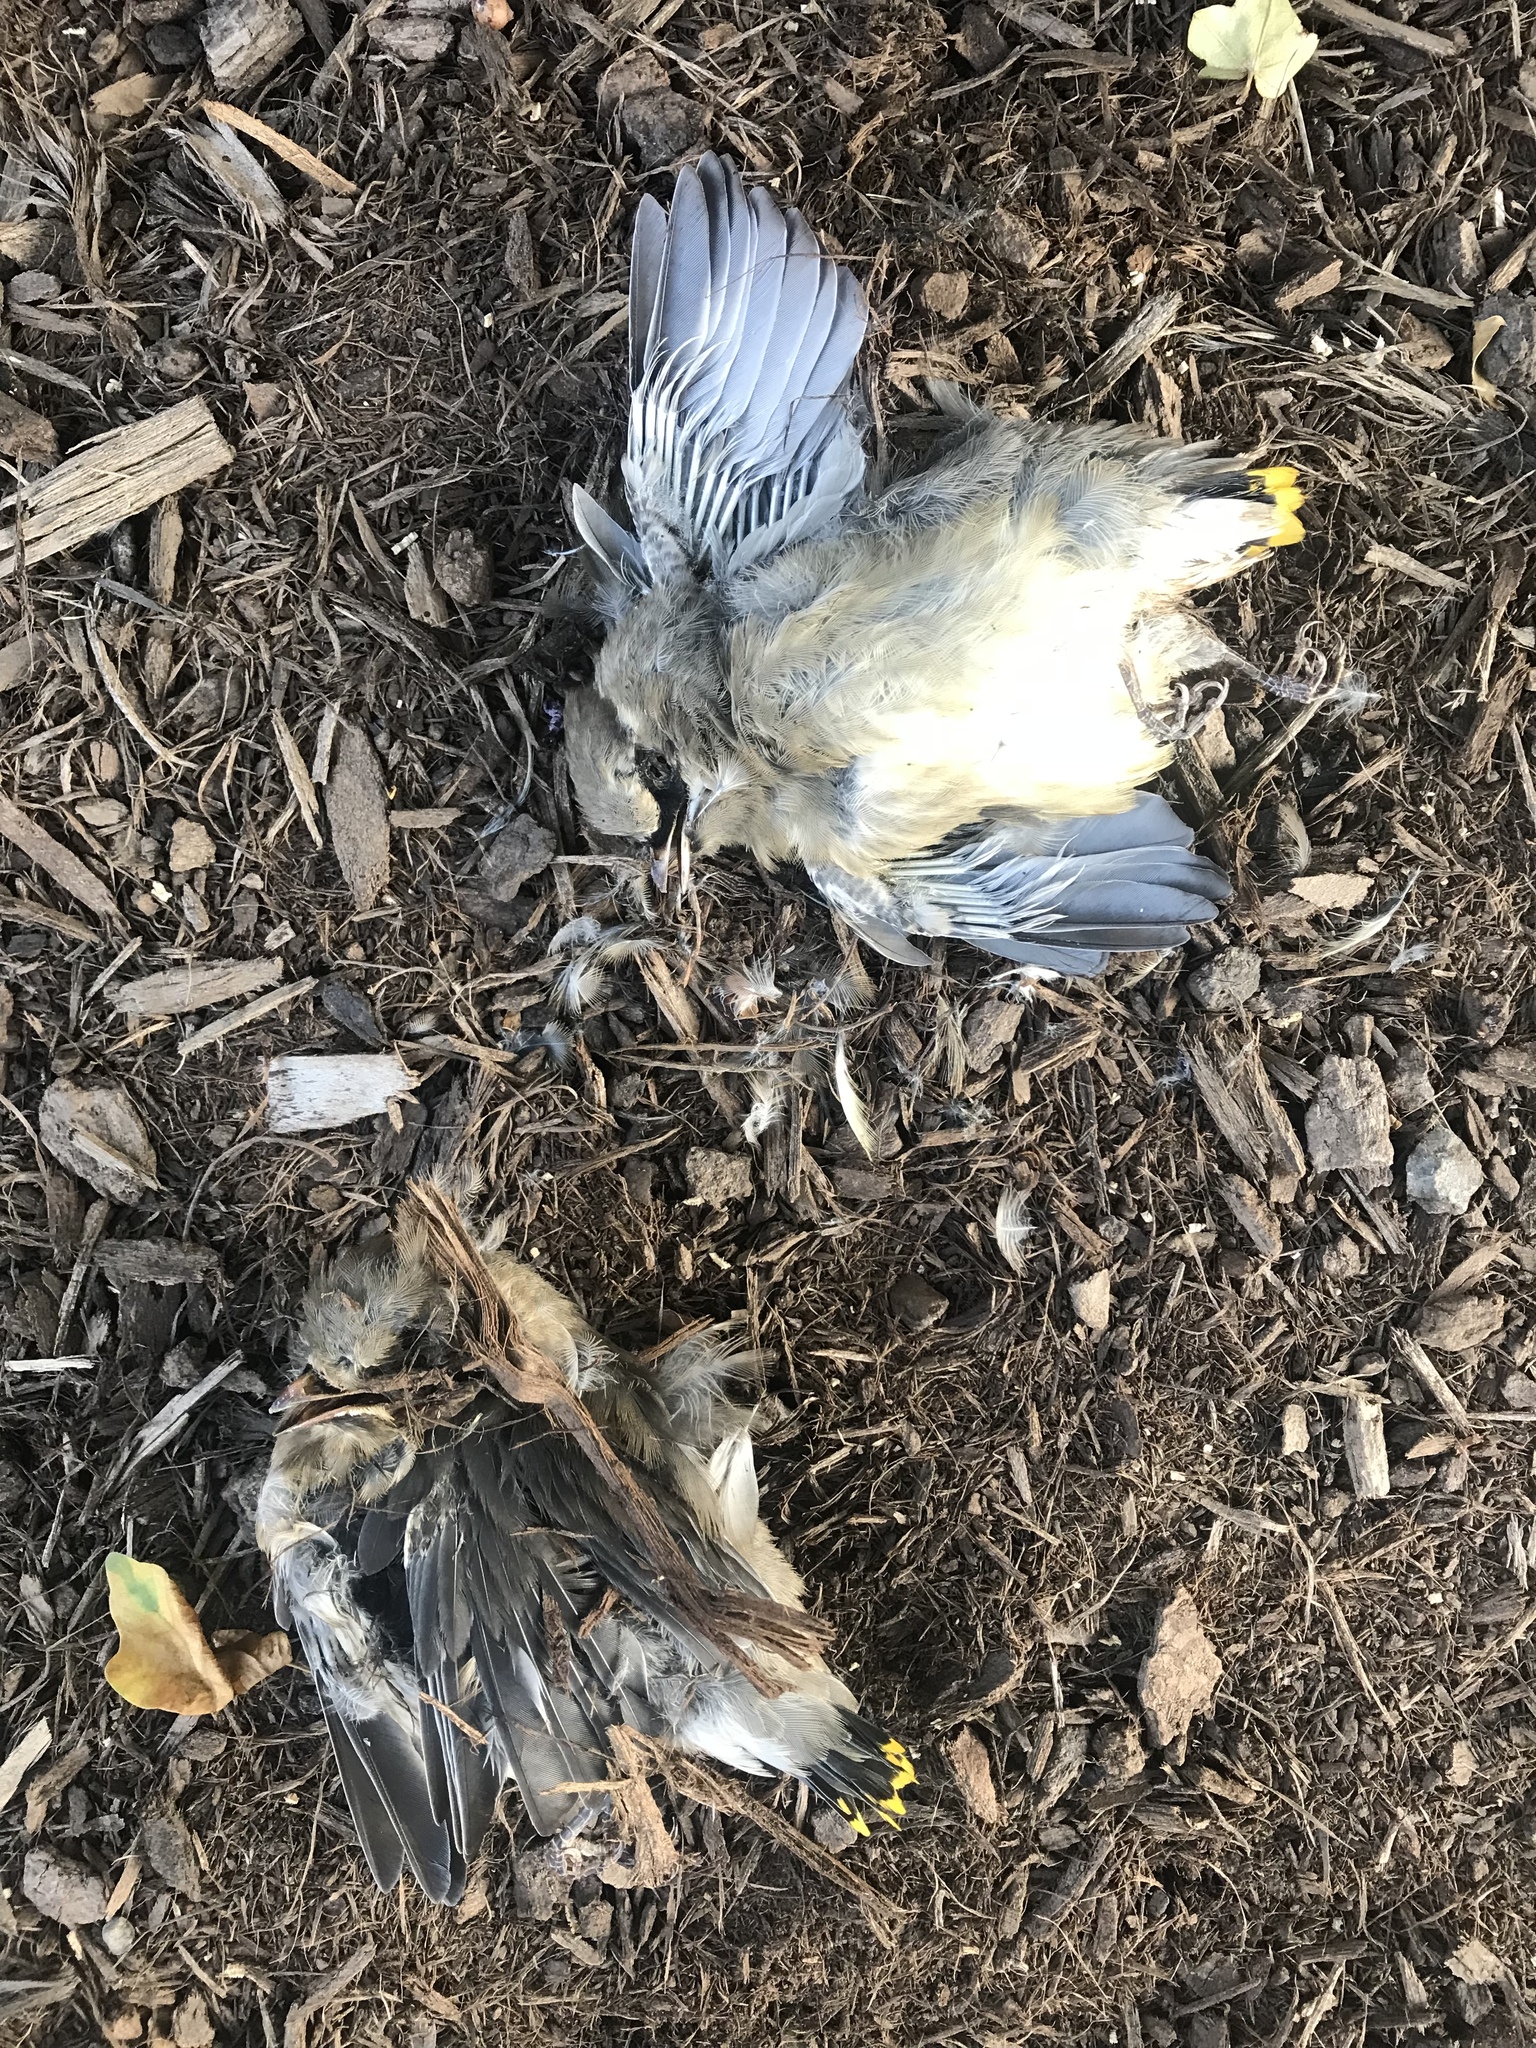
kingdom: Animalia
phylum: Chordata
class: Aves
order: Passeriformes
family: Bombycillidae
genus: Bombycilla
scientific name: Bombycilla cedrorum
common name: Cedar waxwing
